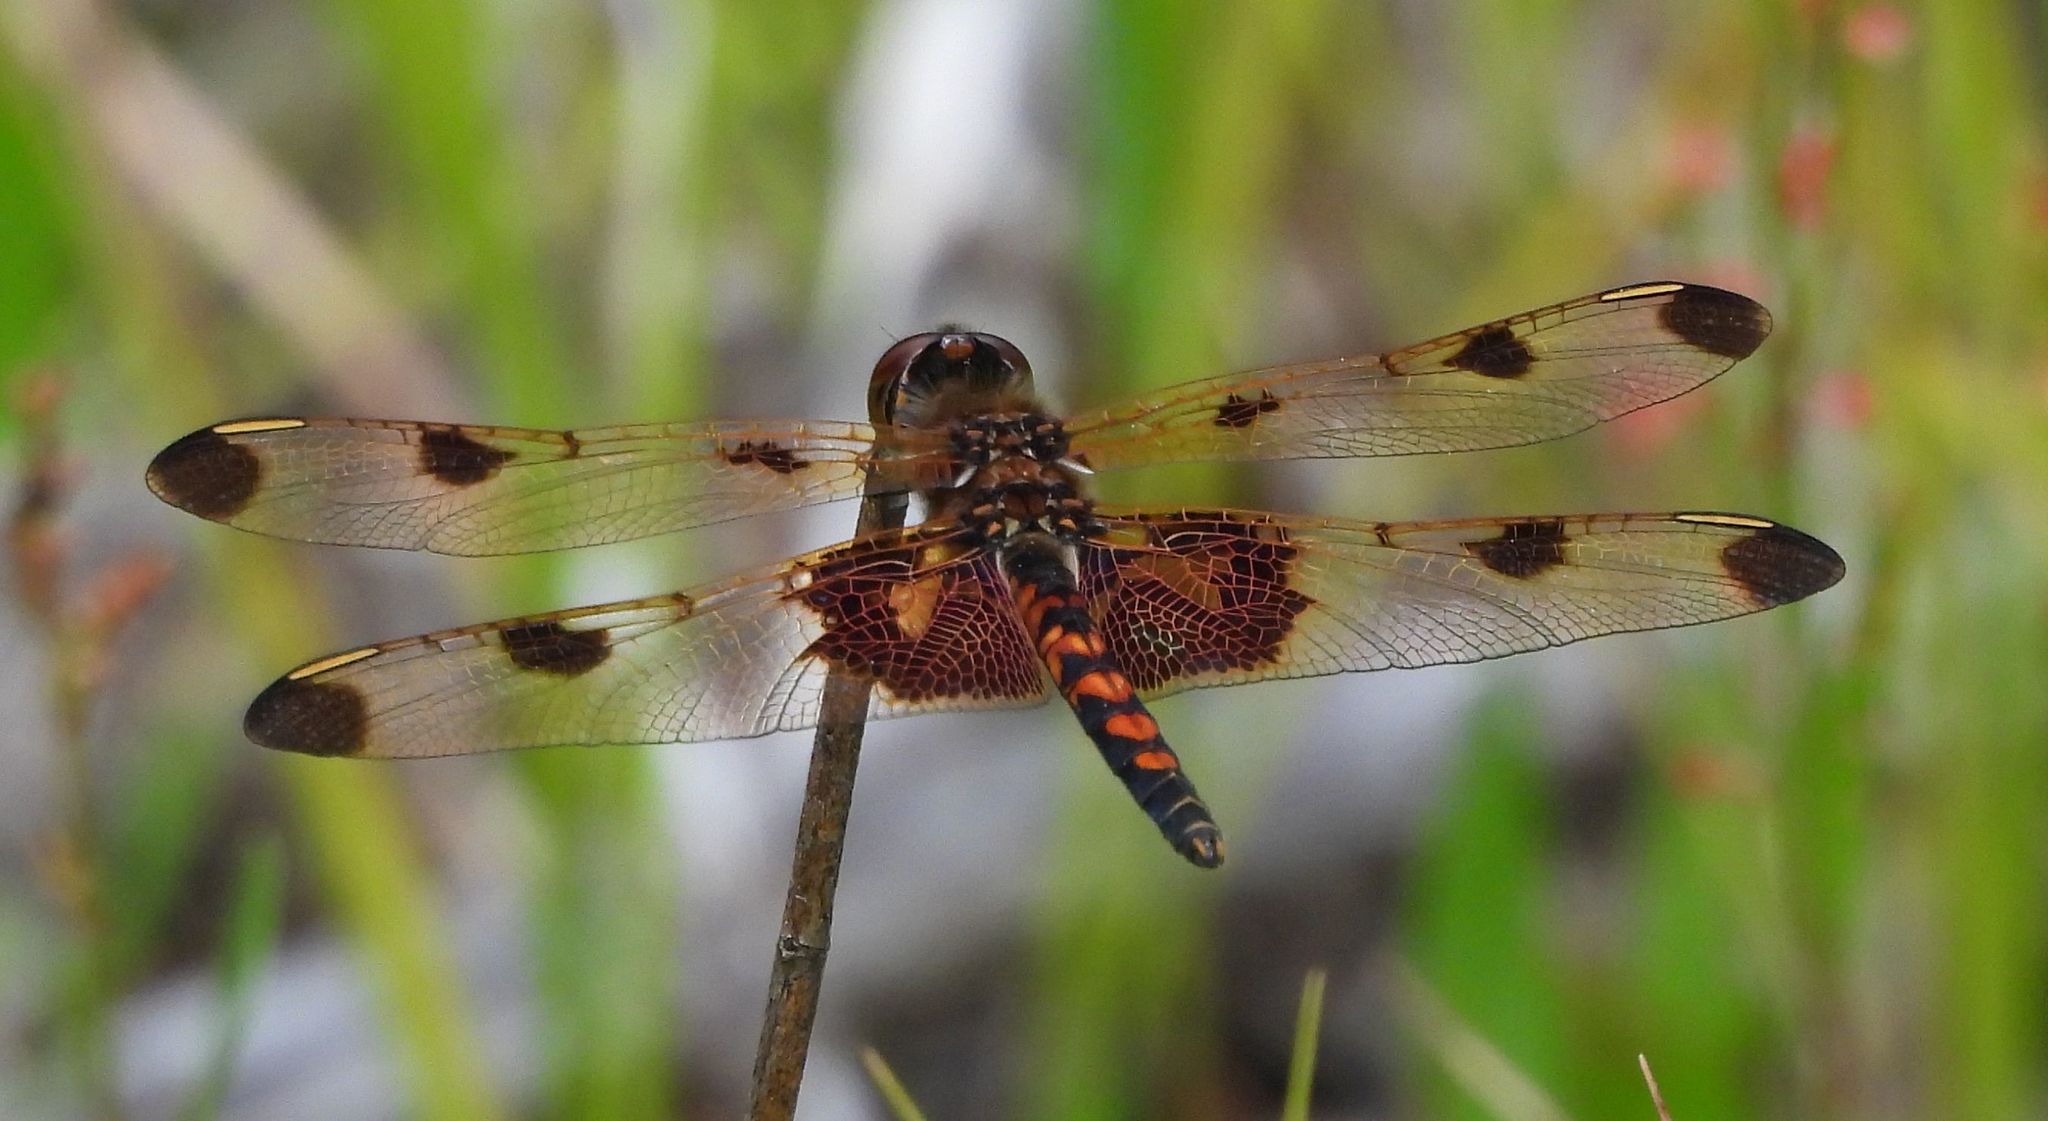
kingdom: Animalia
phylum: Arthropoda
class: Insecta
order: Odonata
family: Libellulidae
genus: Celithemis
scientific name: Celithemis elisa
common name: Calico pennant
